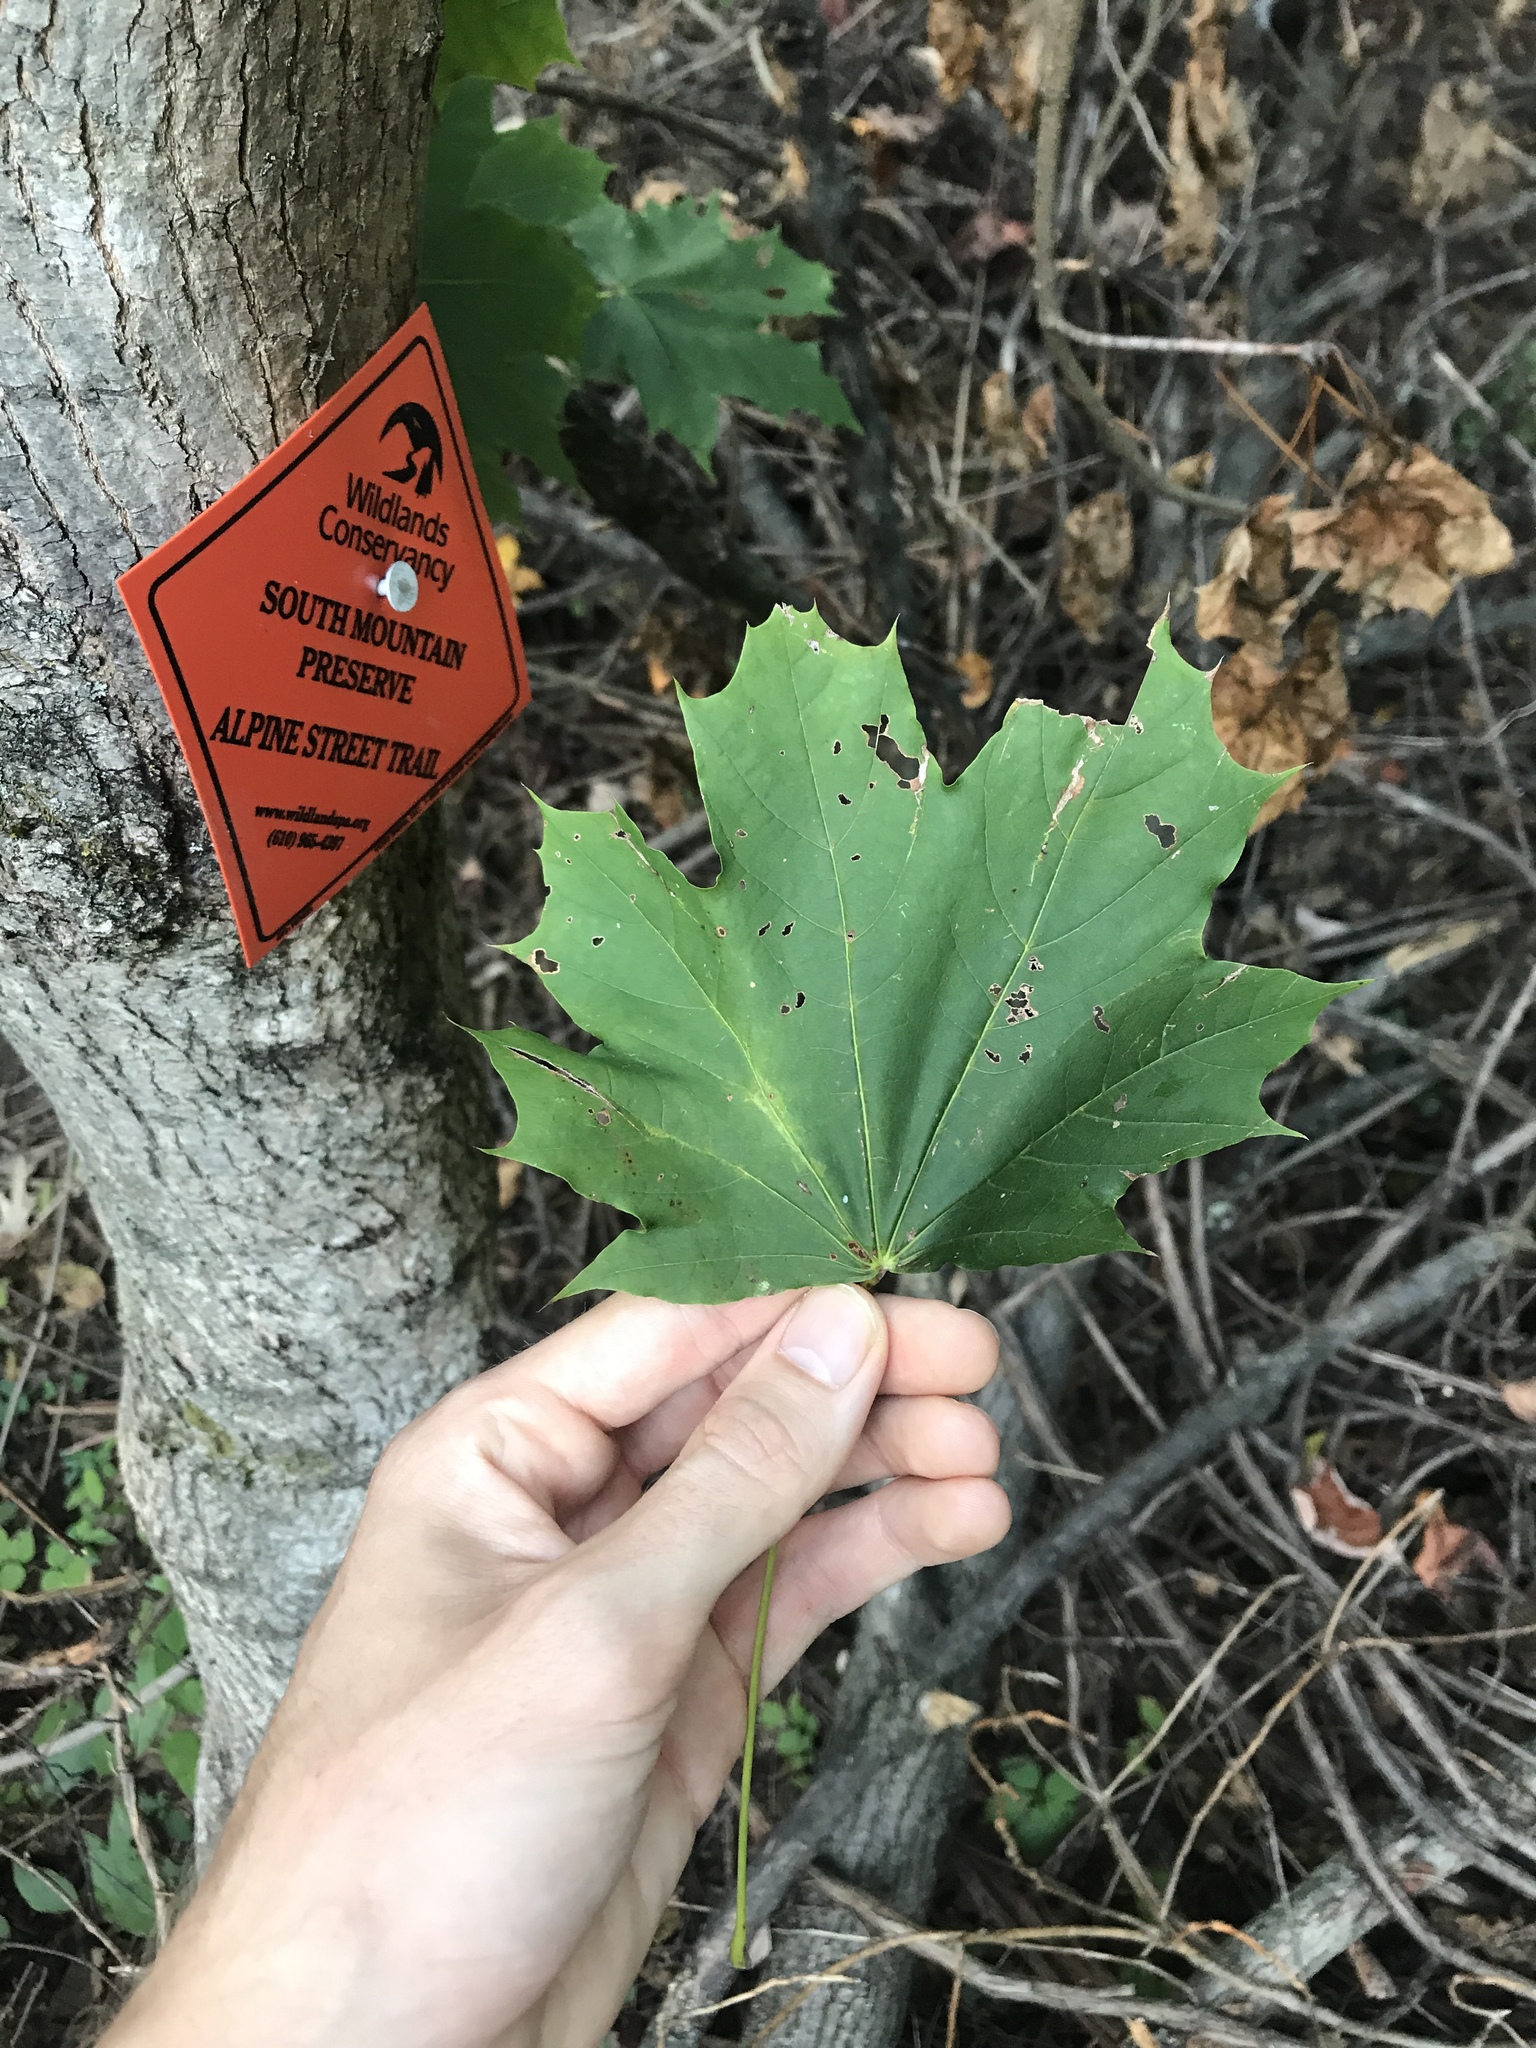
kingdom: Plantae
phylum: Tracheophyta
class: Magnoliopsida
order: Sapindales
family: Sapindaceae
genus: Acer
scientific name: Acer platanoides
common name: Norway maple
